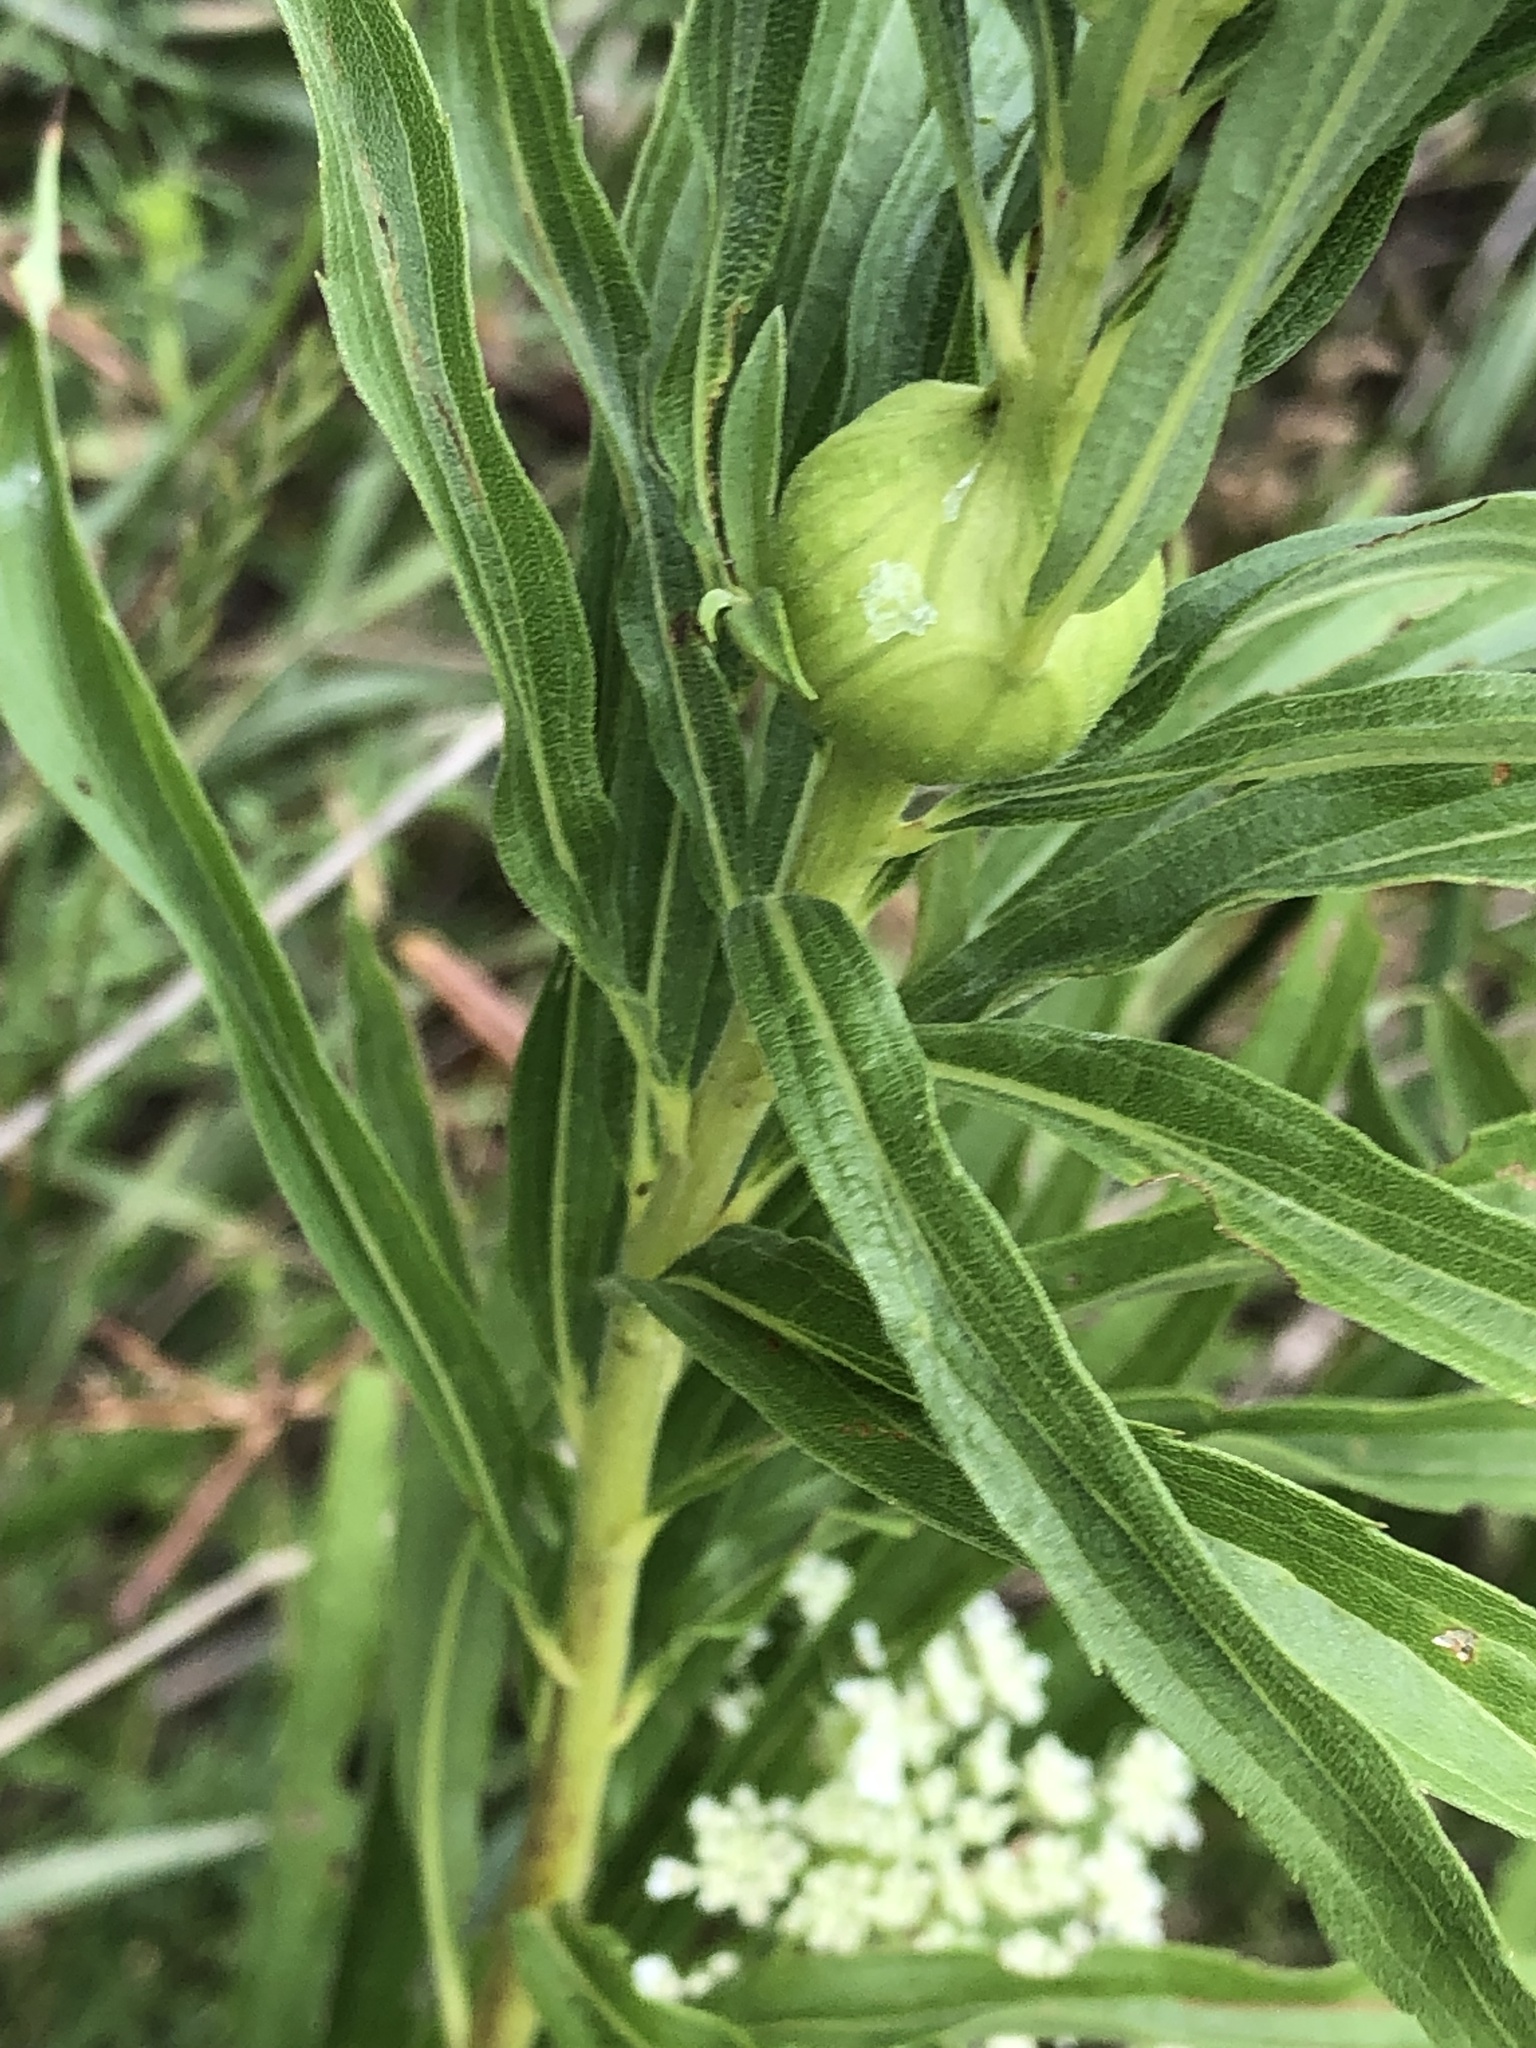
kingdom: Animalia
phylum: Arthropoda
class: Insecta
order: Diptera
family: Tephritidae
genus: Eurosta
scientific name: Eurosta solidaginis
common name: Goldenrod gall fly
